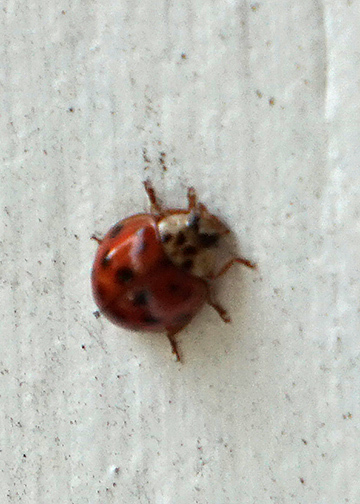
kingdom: Animalia
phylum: Arthropoda
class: Insecta
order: Coleoptera
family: Coccinellidae
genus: Harmonia
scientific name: Harmonia axyridis
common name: Harlequin ladybird
